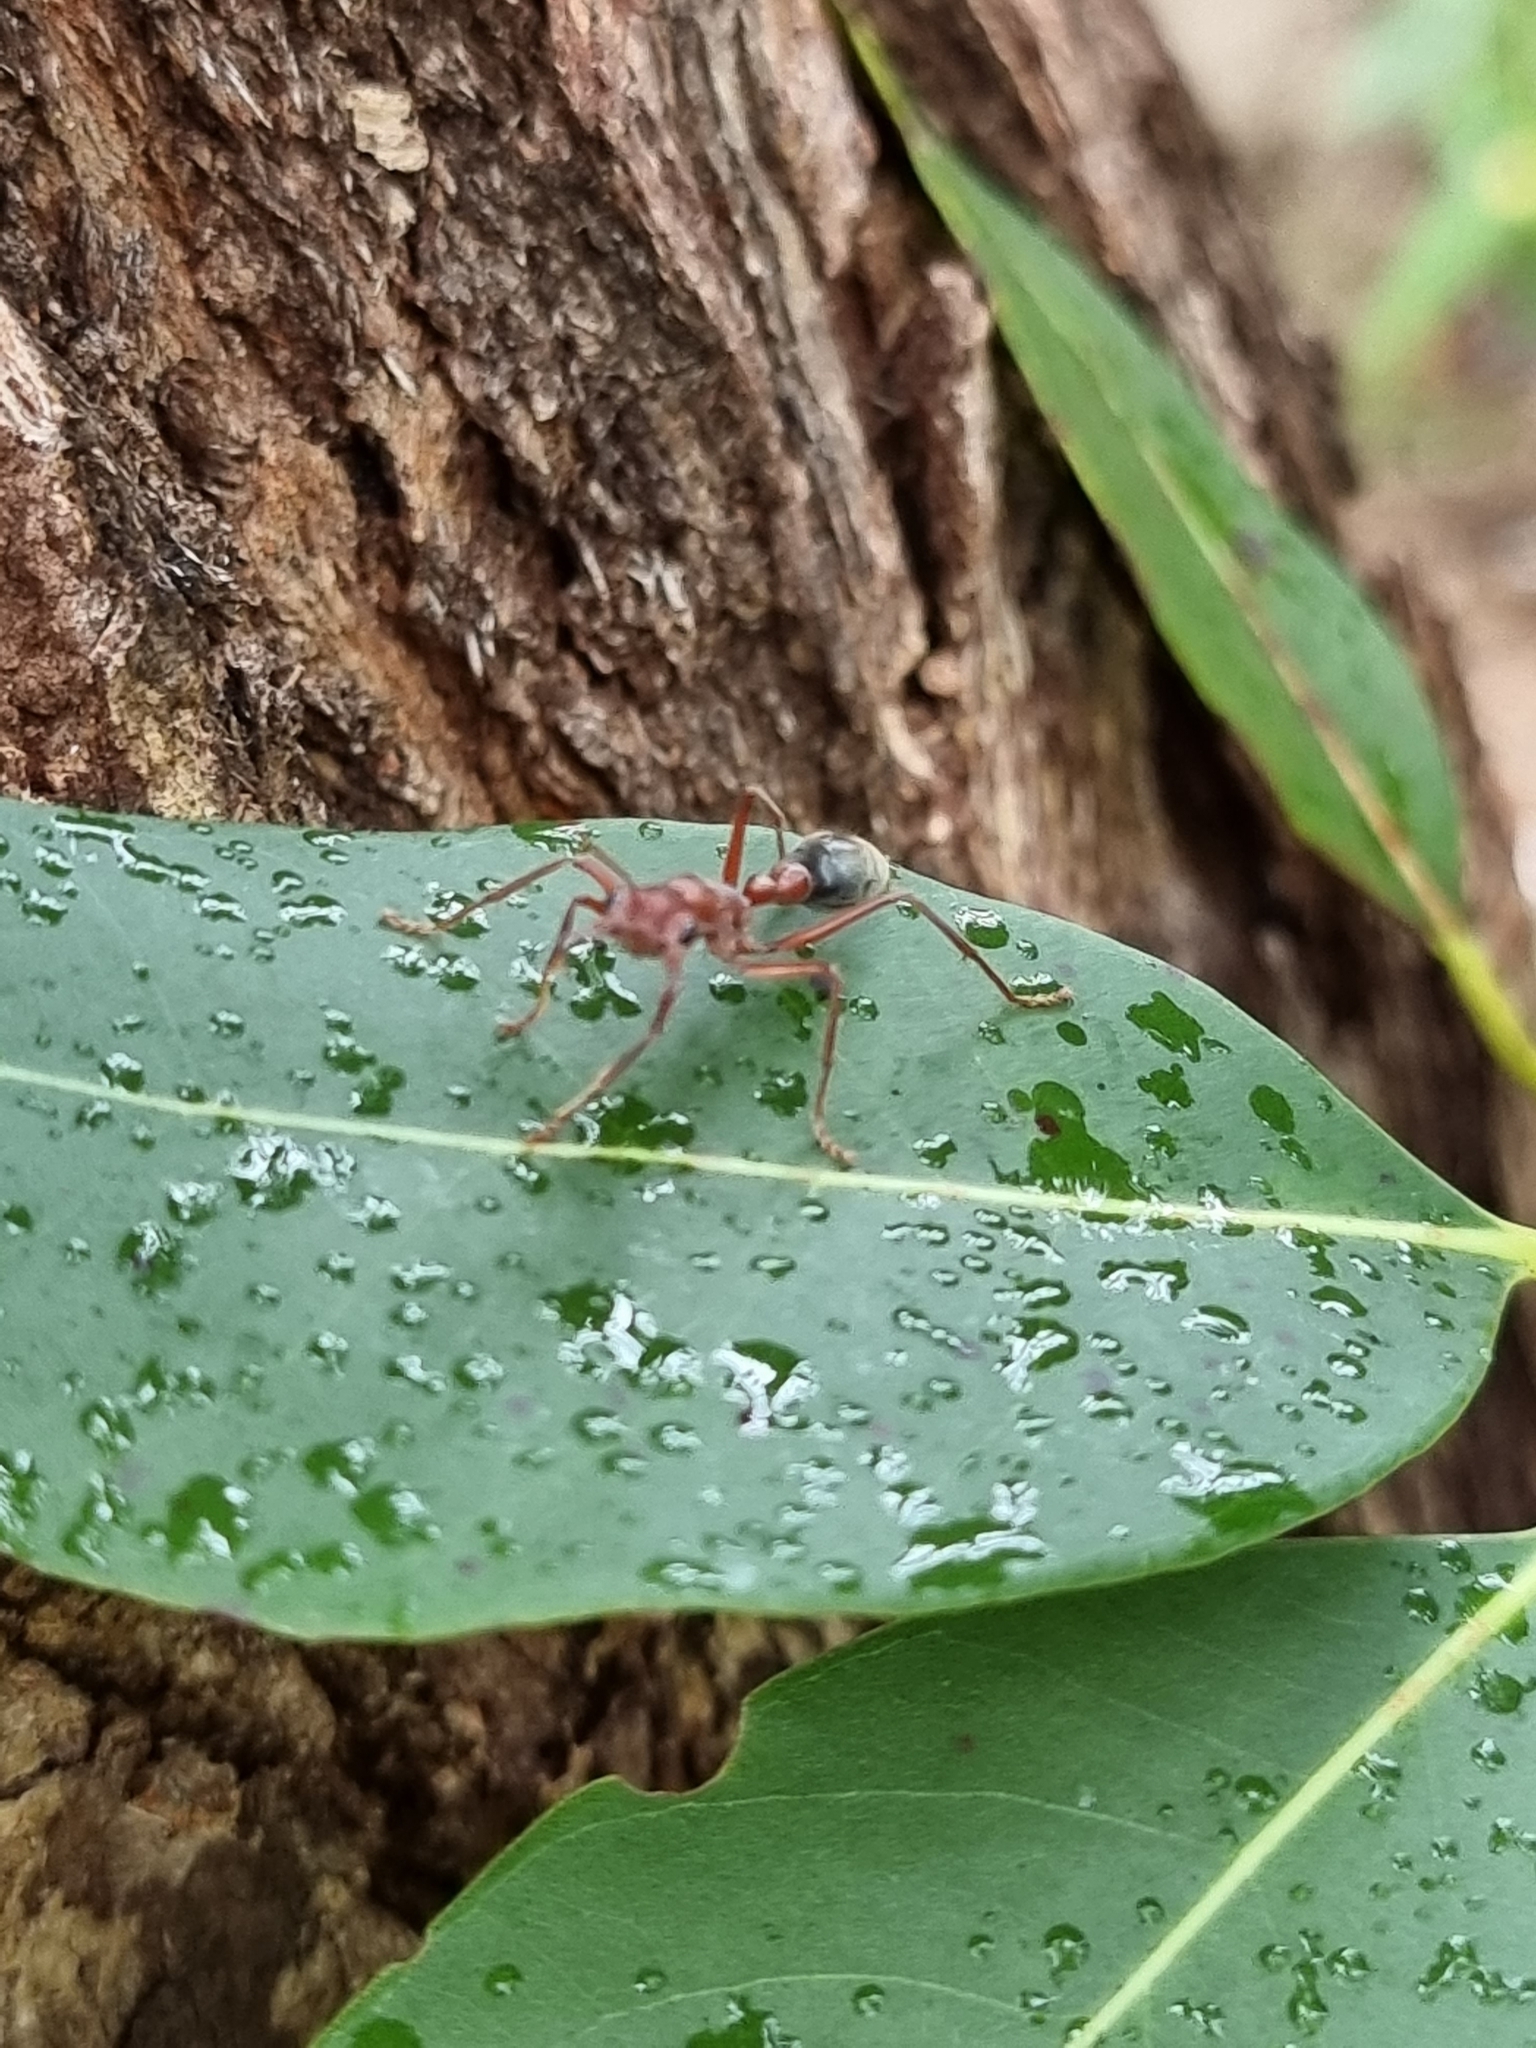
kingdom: Animalia
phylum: Arthropoda
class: Insecta
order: Hymenoptera
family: Formicidae
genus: Myrmecia
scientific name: Myrmecia comata
